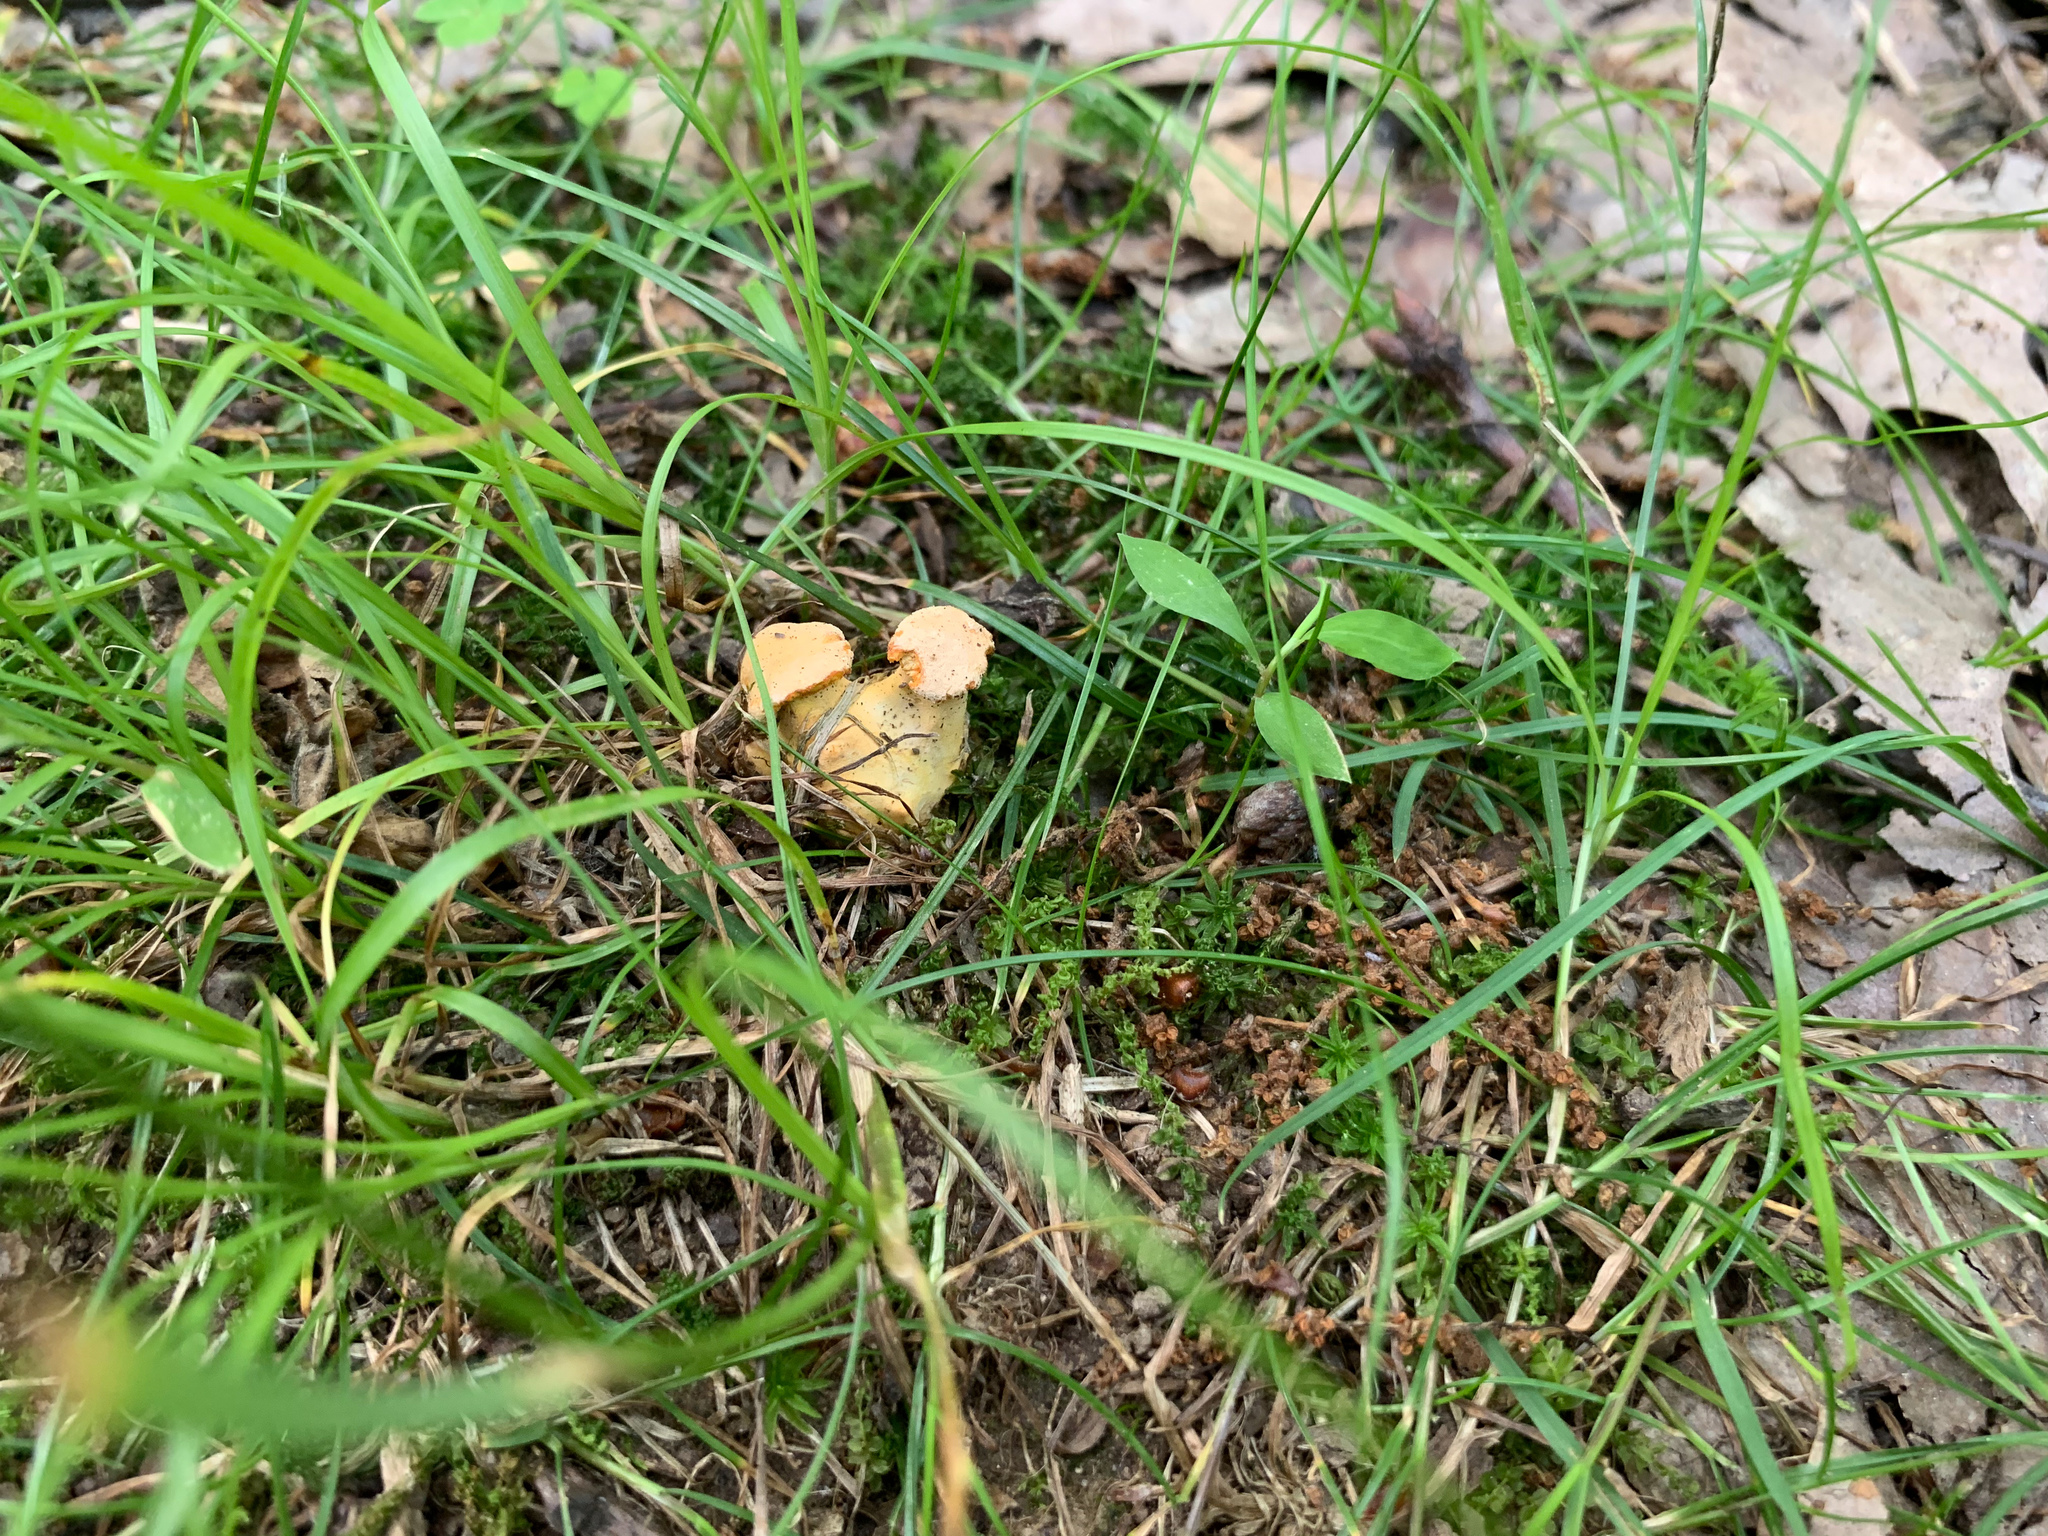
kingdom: Fungi
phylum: Basidiomycota
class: Agaricomycetes
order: Cantharellales
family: Hydnaceae
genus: Cantharellus
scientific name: Cantharellus flavolateritius
